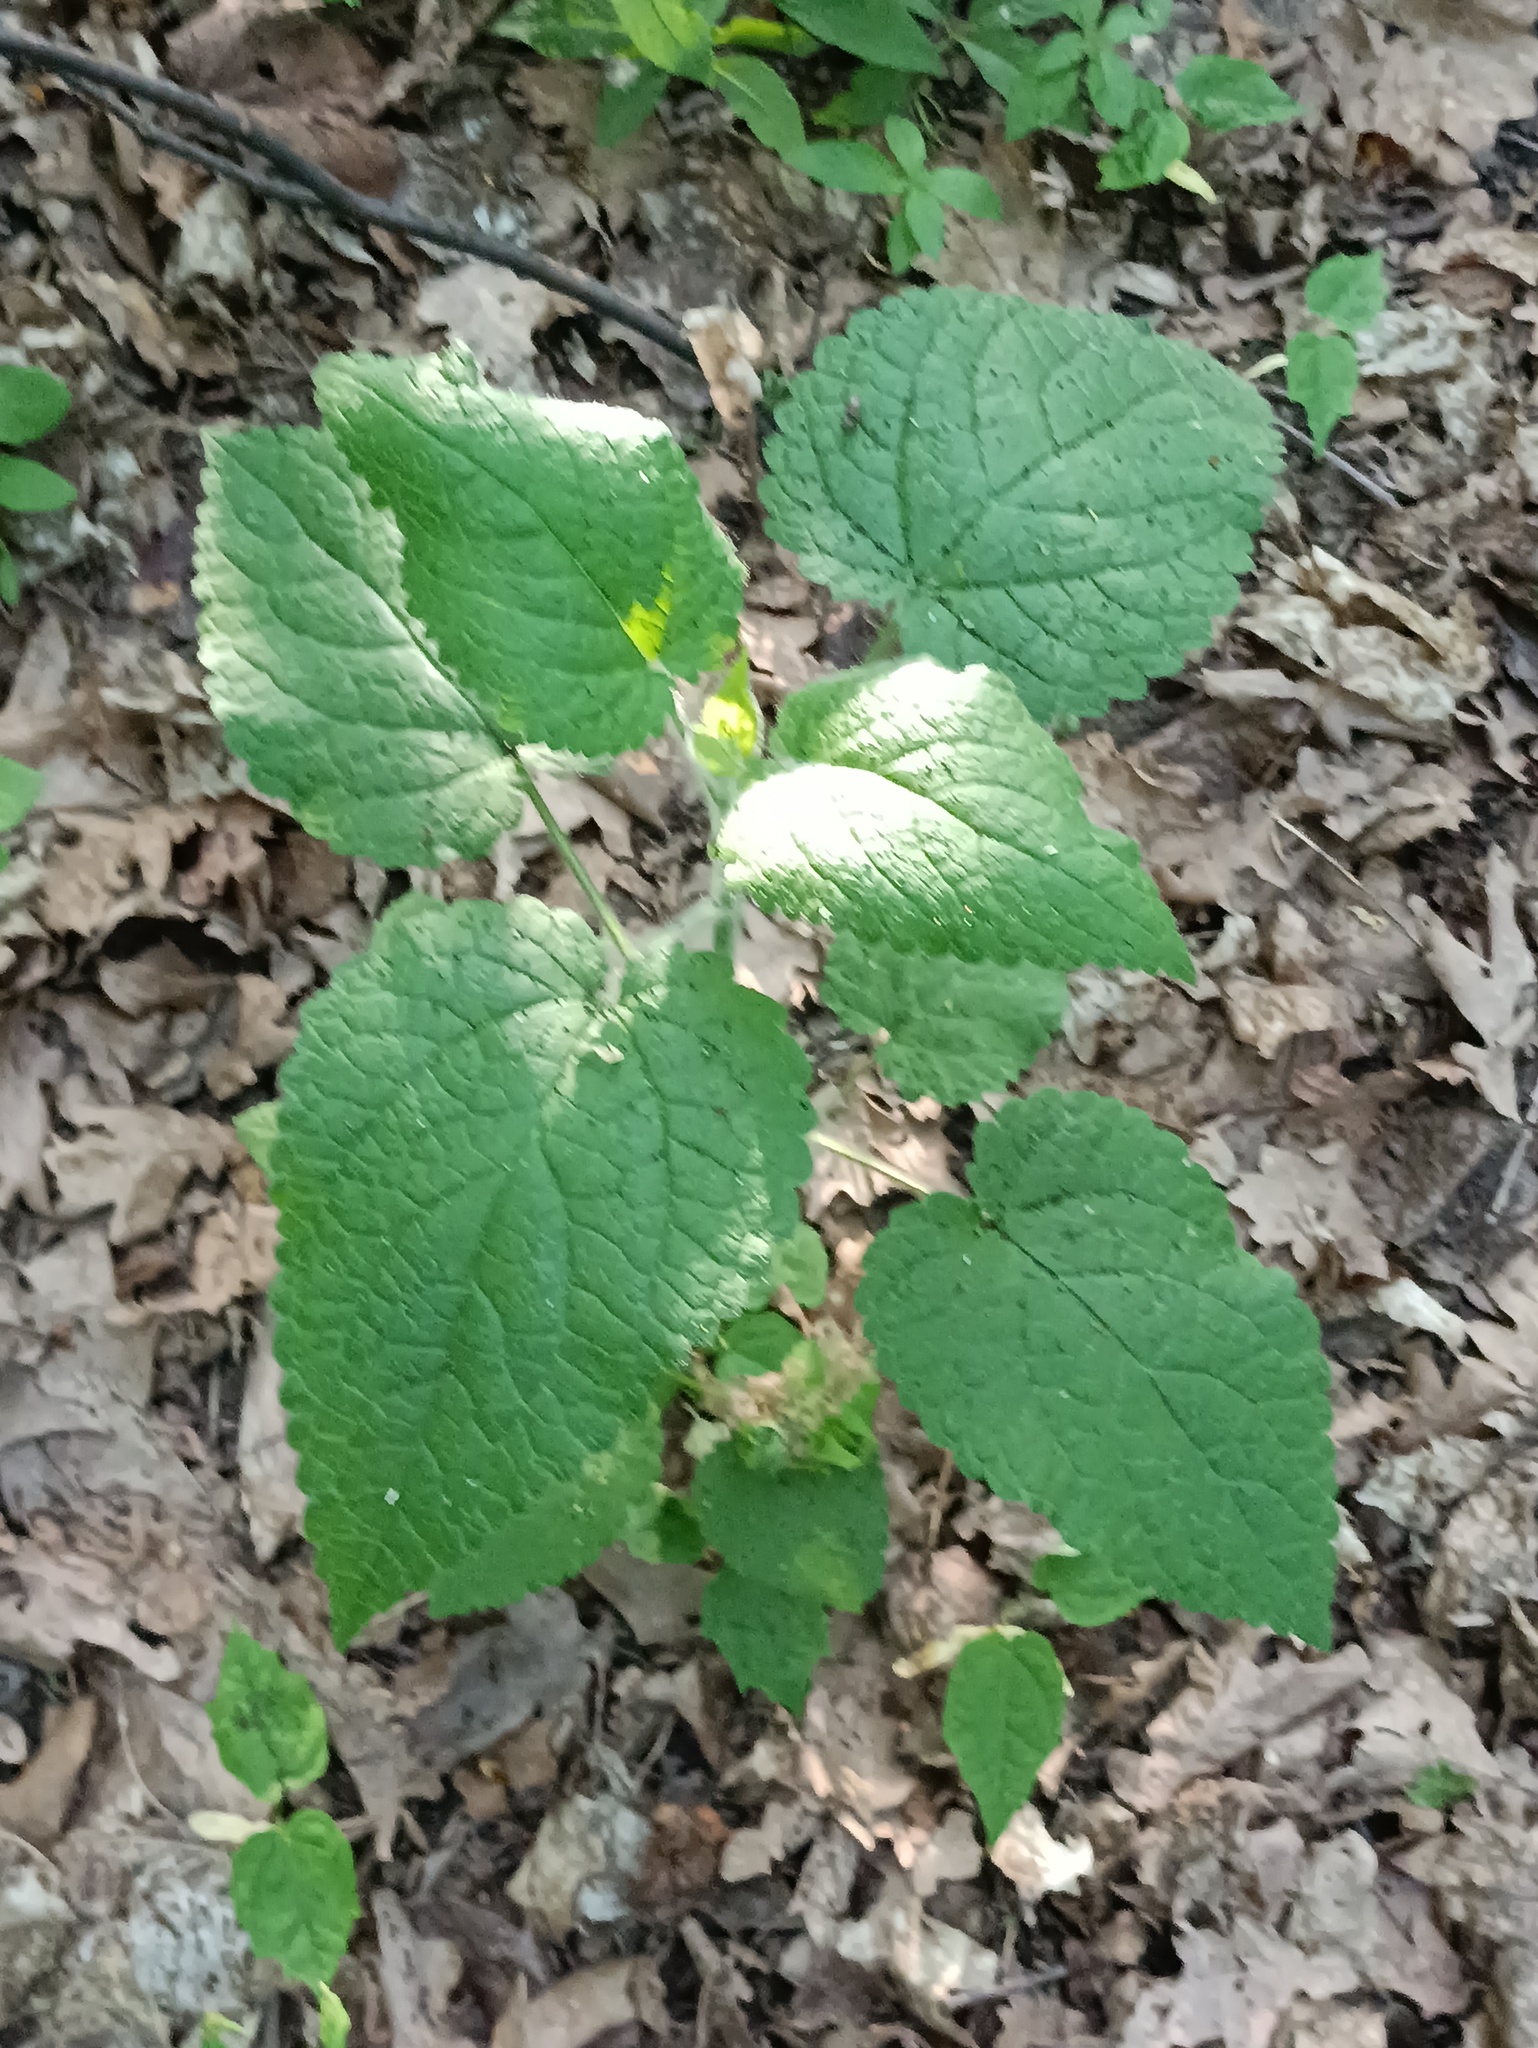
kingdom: Plantae
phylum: Tracheophyta
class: Magnoliopsida
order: Lamiales
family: Lamiaceae
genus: Stachys
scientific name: Stachys sylvatica
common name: Hedge woundwort
